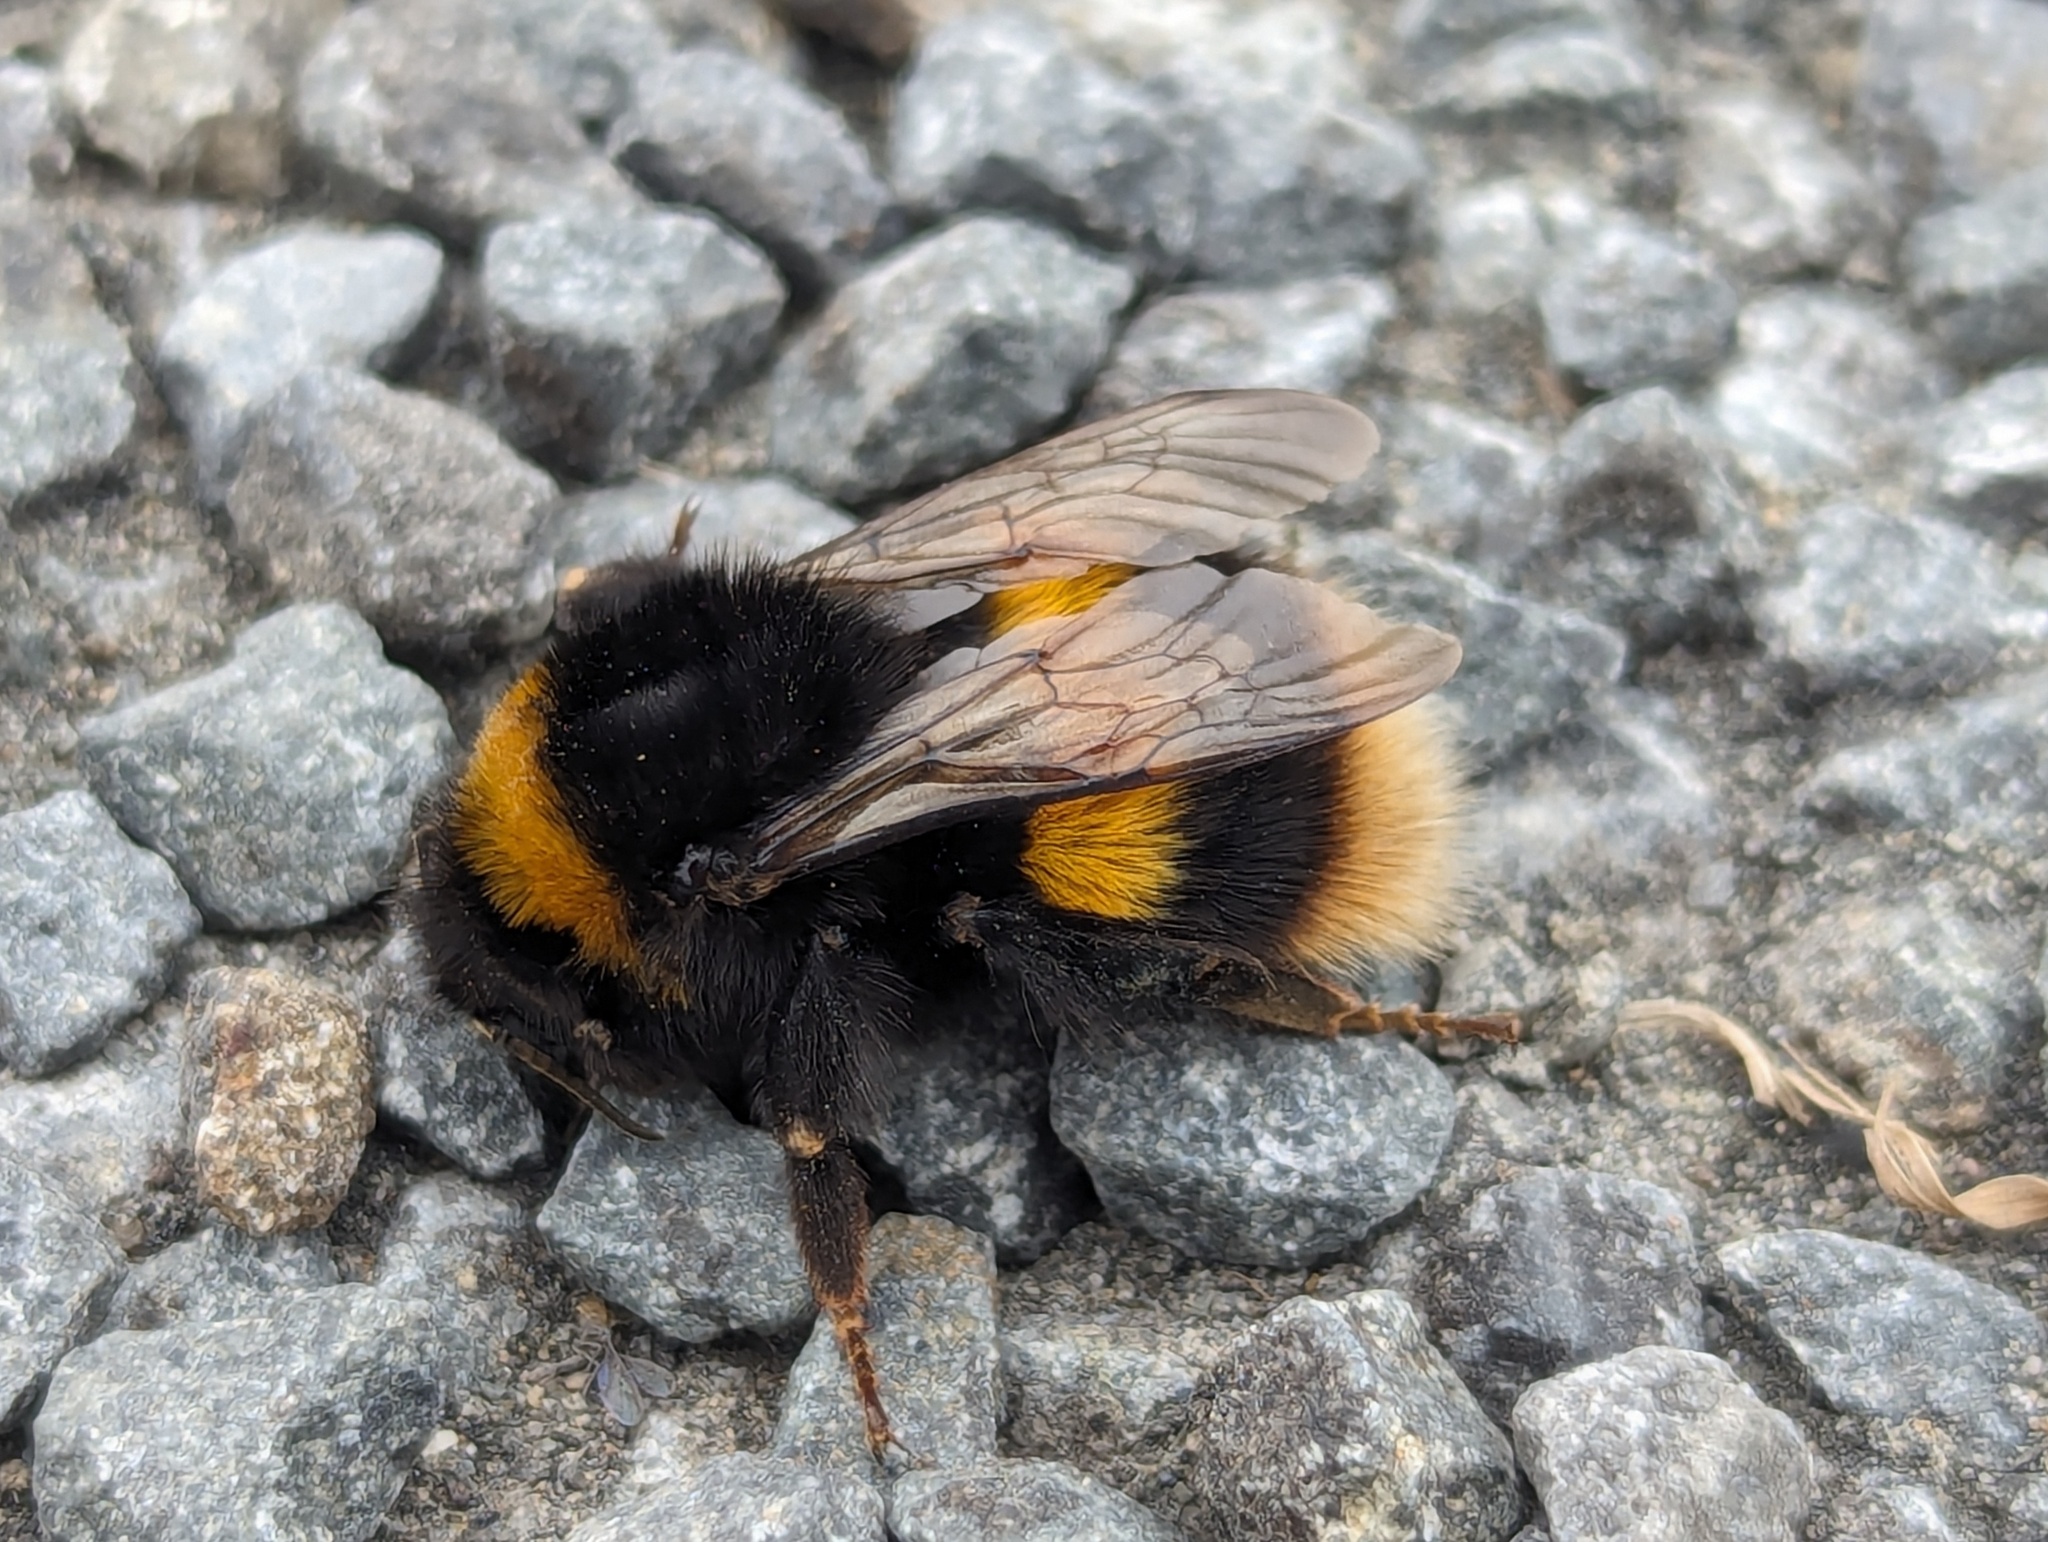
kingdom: Animalia
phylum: Arthropoda
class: Insecta
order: Hymenoptera
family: Apidae
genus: Bombus
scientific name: Bombus terrestris
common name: Buff-tailed bumblebee
